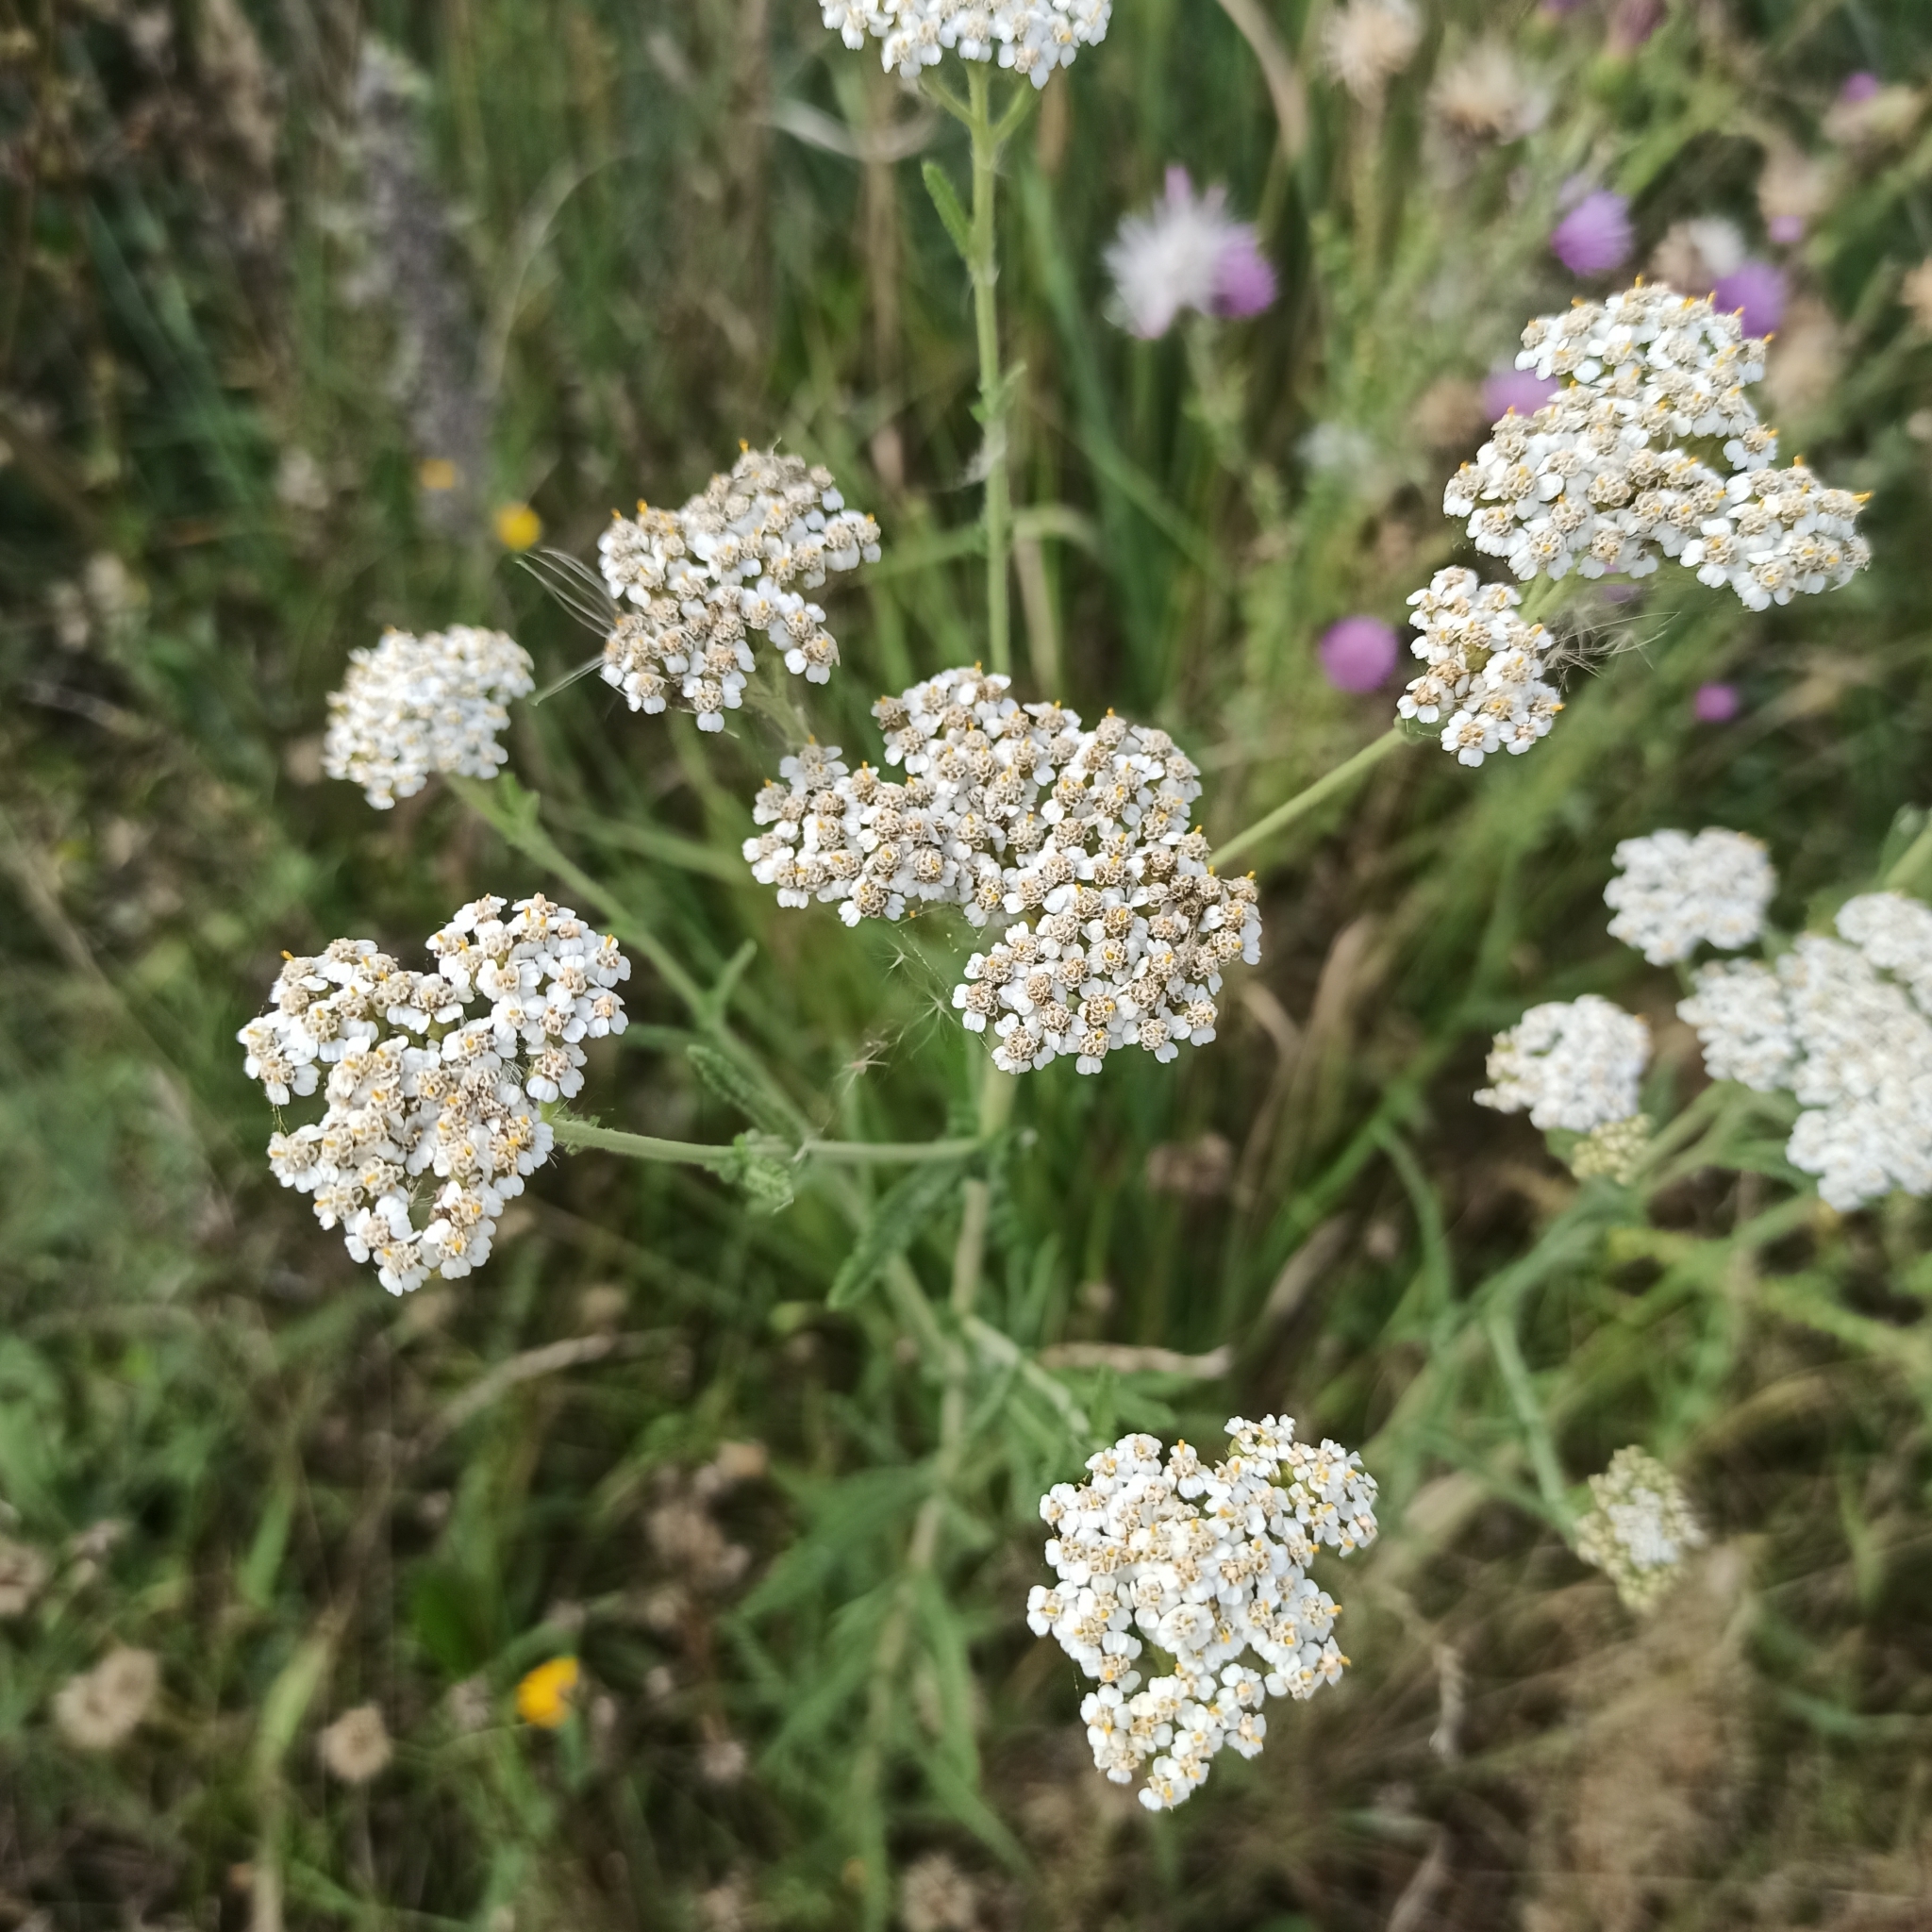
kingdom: Plantae
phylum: Tracheophyta
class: Magnoliopsida
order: Asterales
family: Asteraceae
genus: Achillea
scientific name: Achillea millefolium
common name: Yarrow
